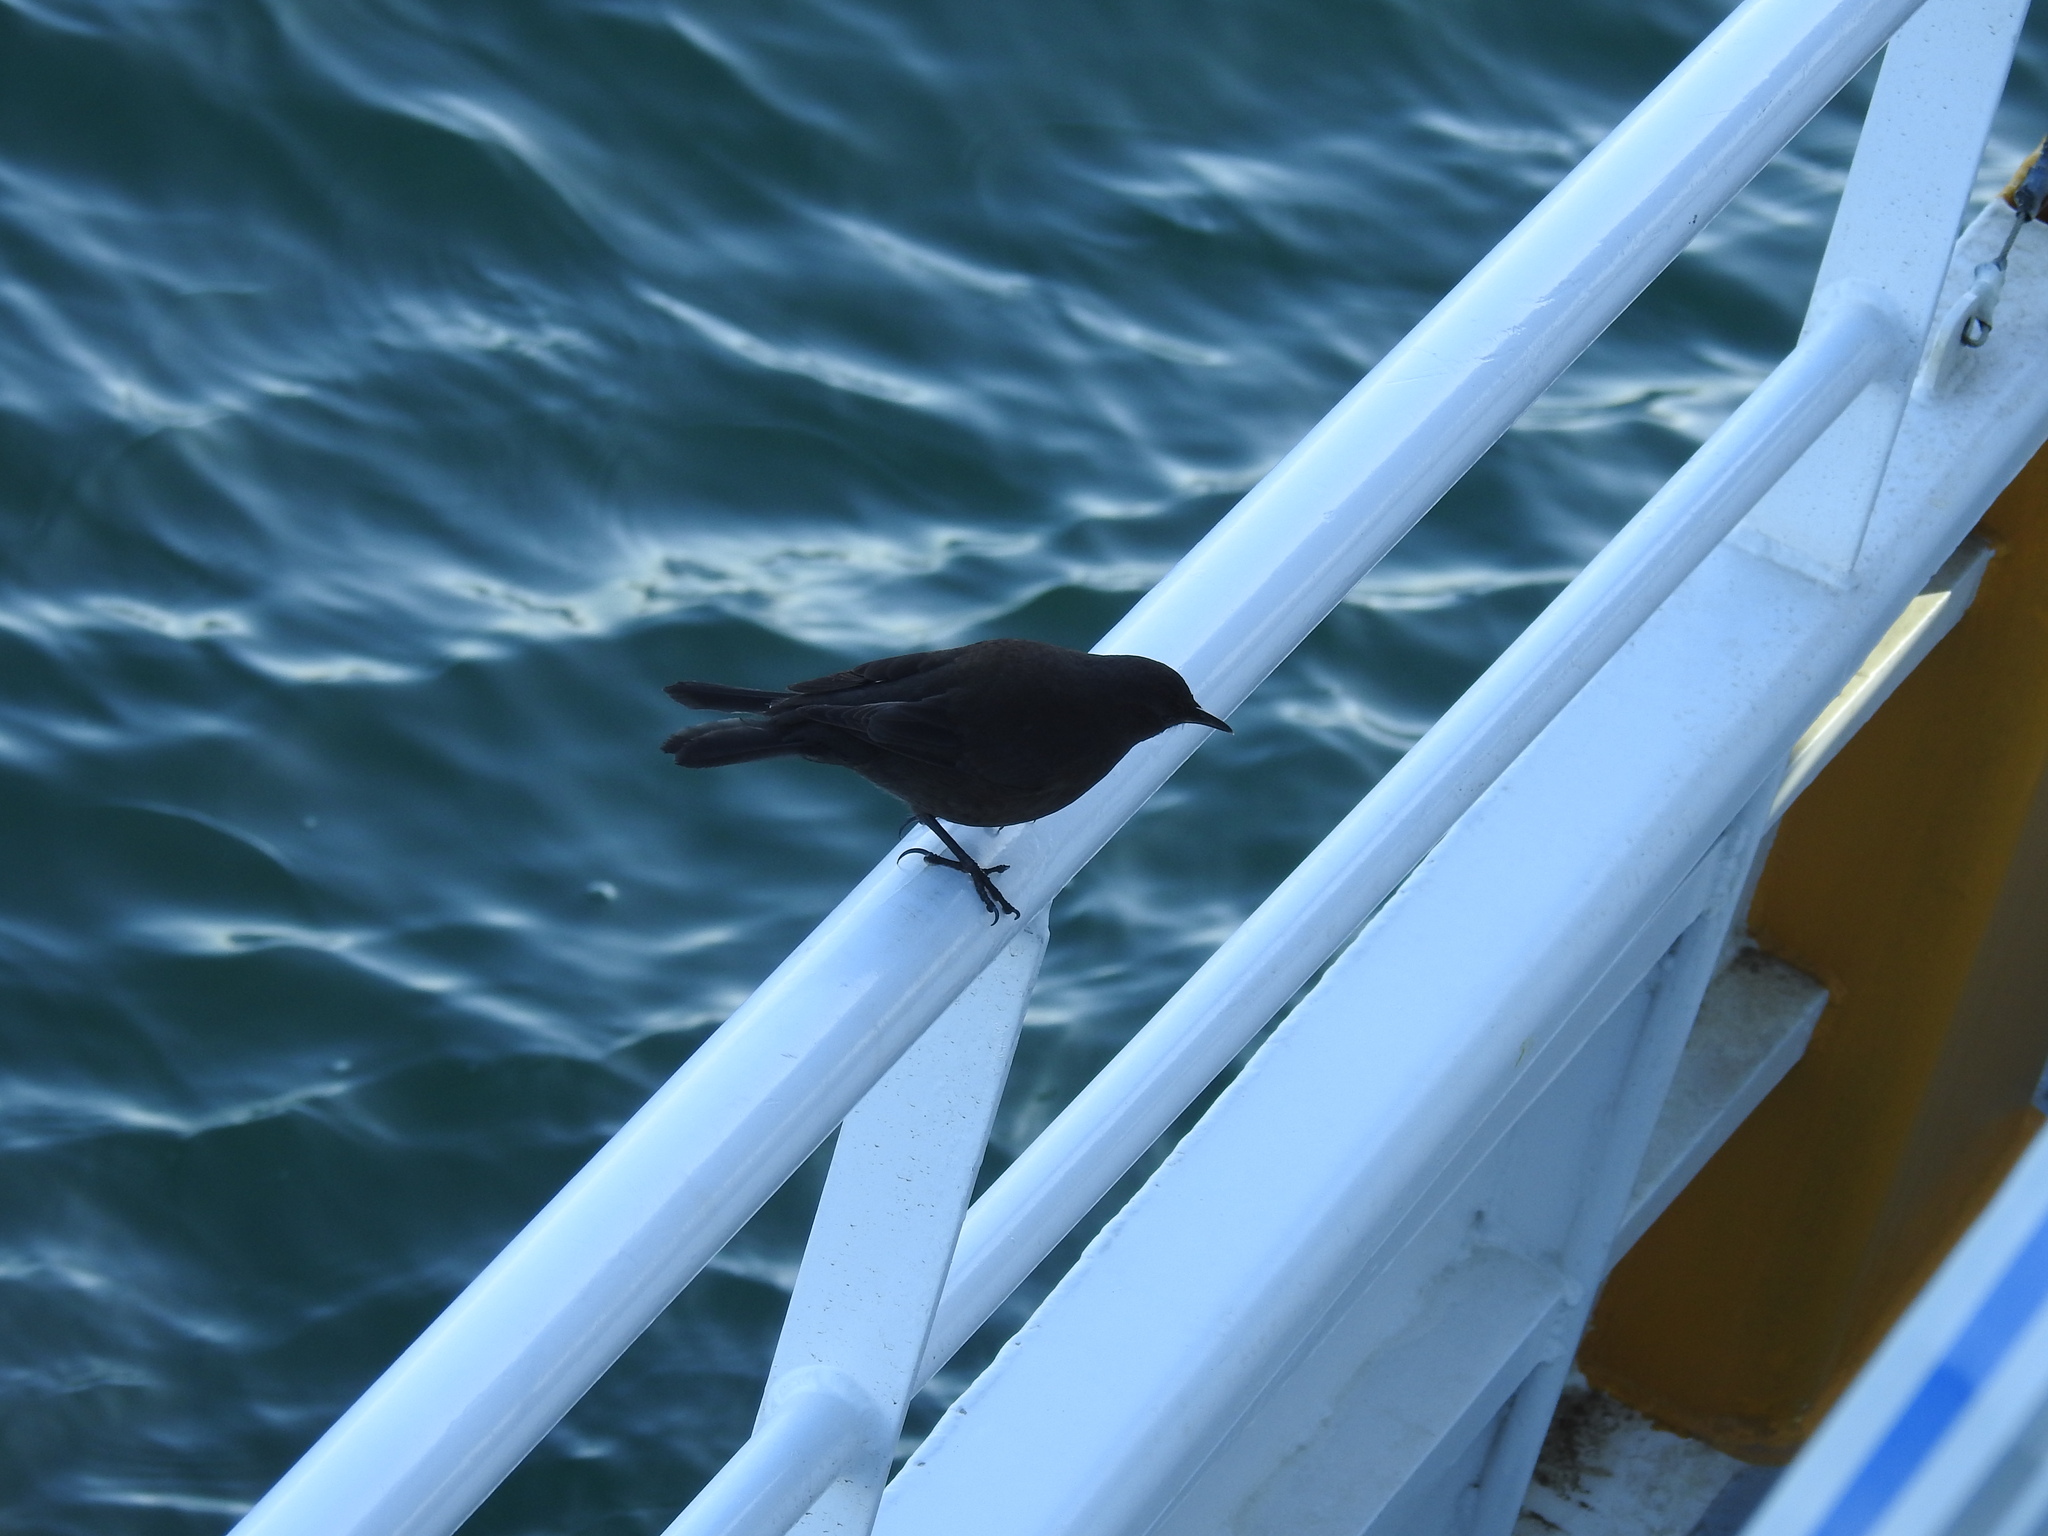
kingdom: Animalia
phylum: Chordata
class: Aves
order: Passeriformes
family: Furnariidae
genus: Cinclodes
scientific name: Cinclodes antarcticus
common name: Blackish cinclodes
